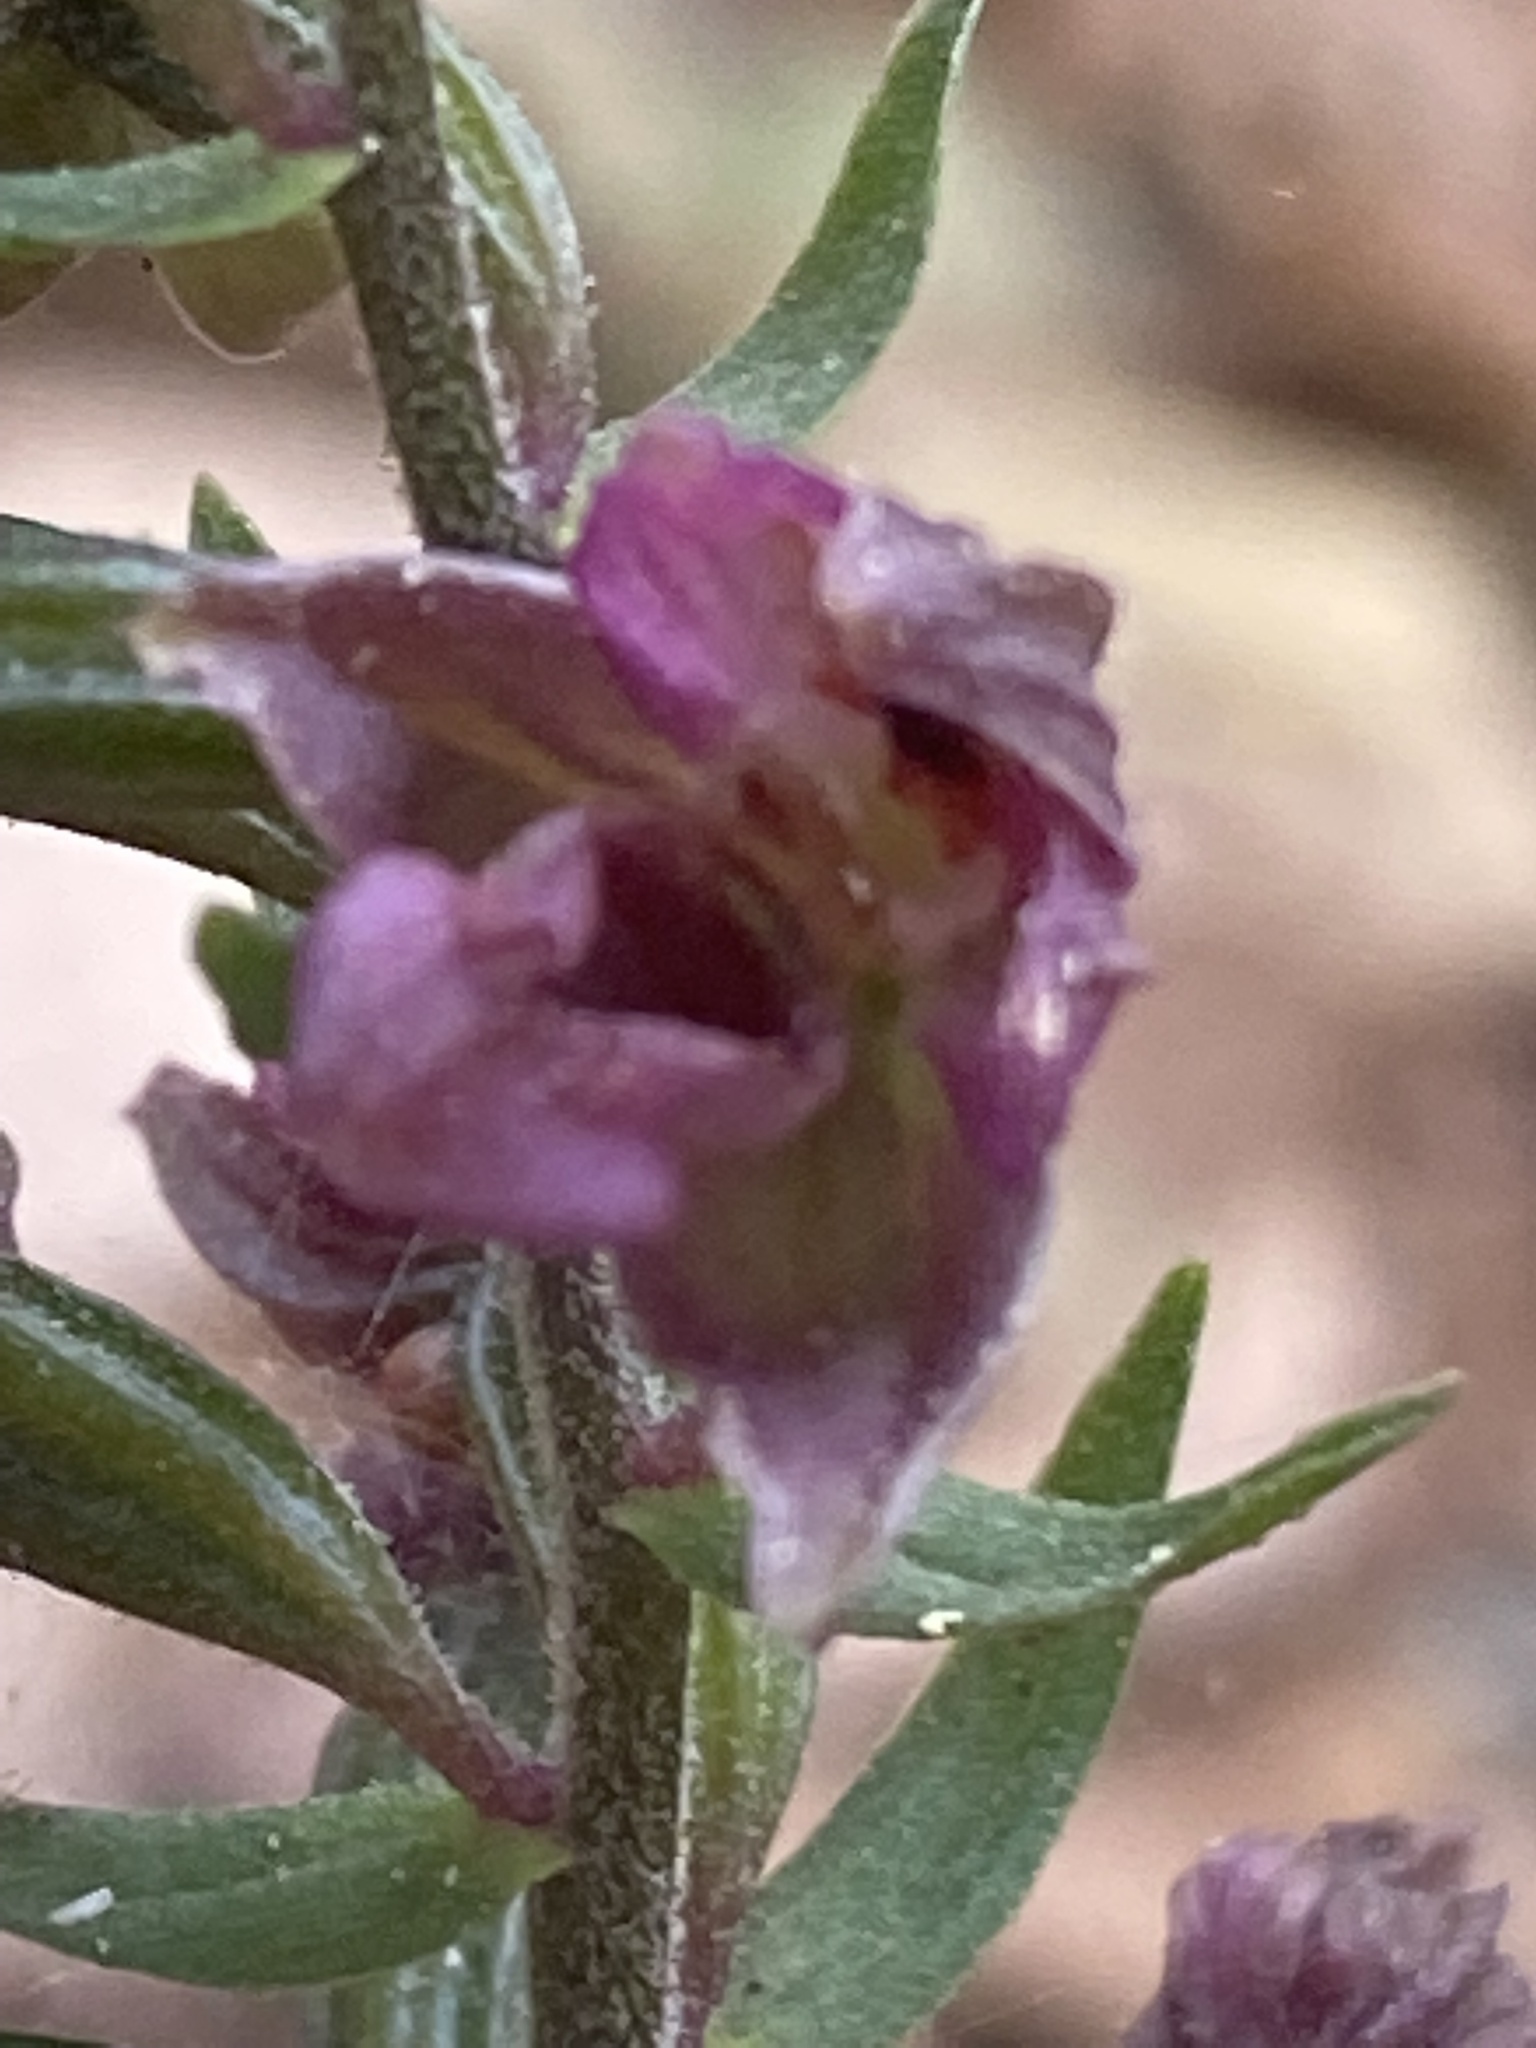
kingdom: Plantae
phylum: Tracheophyta
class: Liliopsida
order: Asparagales
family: Orchidaceae
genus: Epipactis
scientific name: Epipactis helleborine
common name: Broad-leaved helleborine
